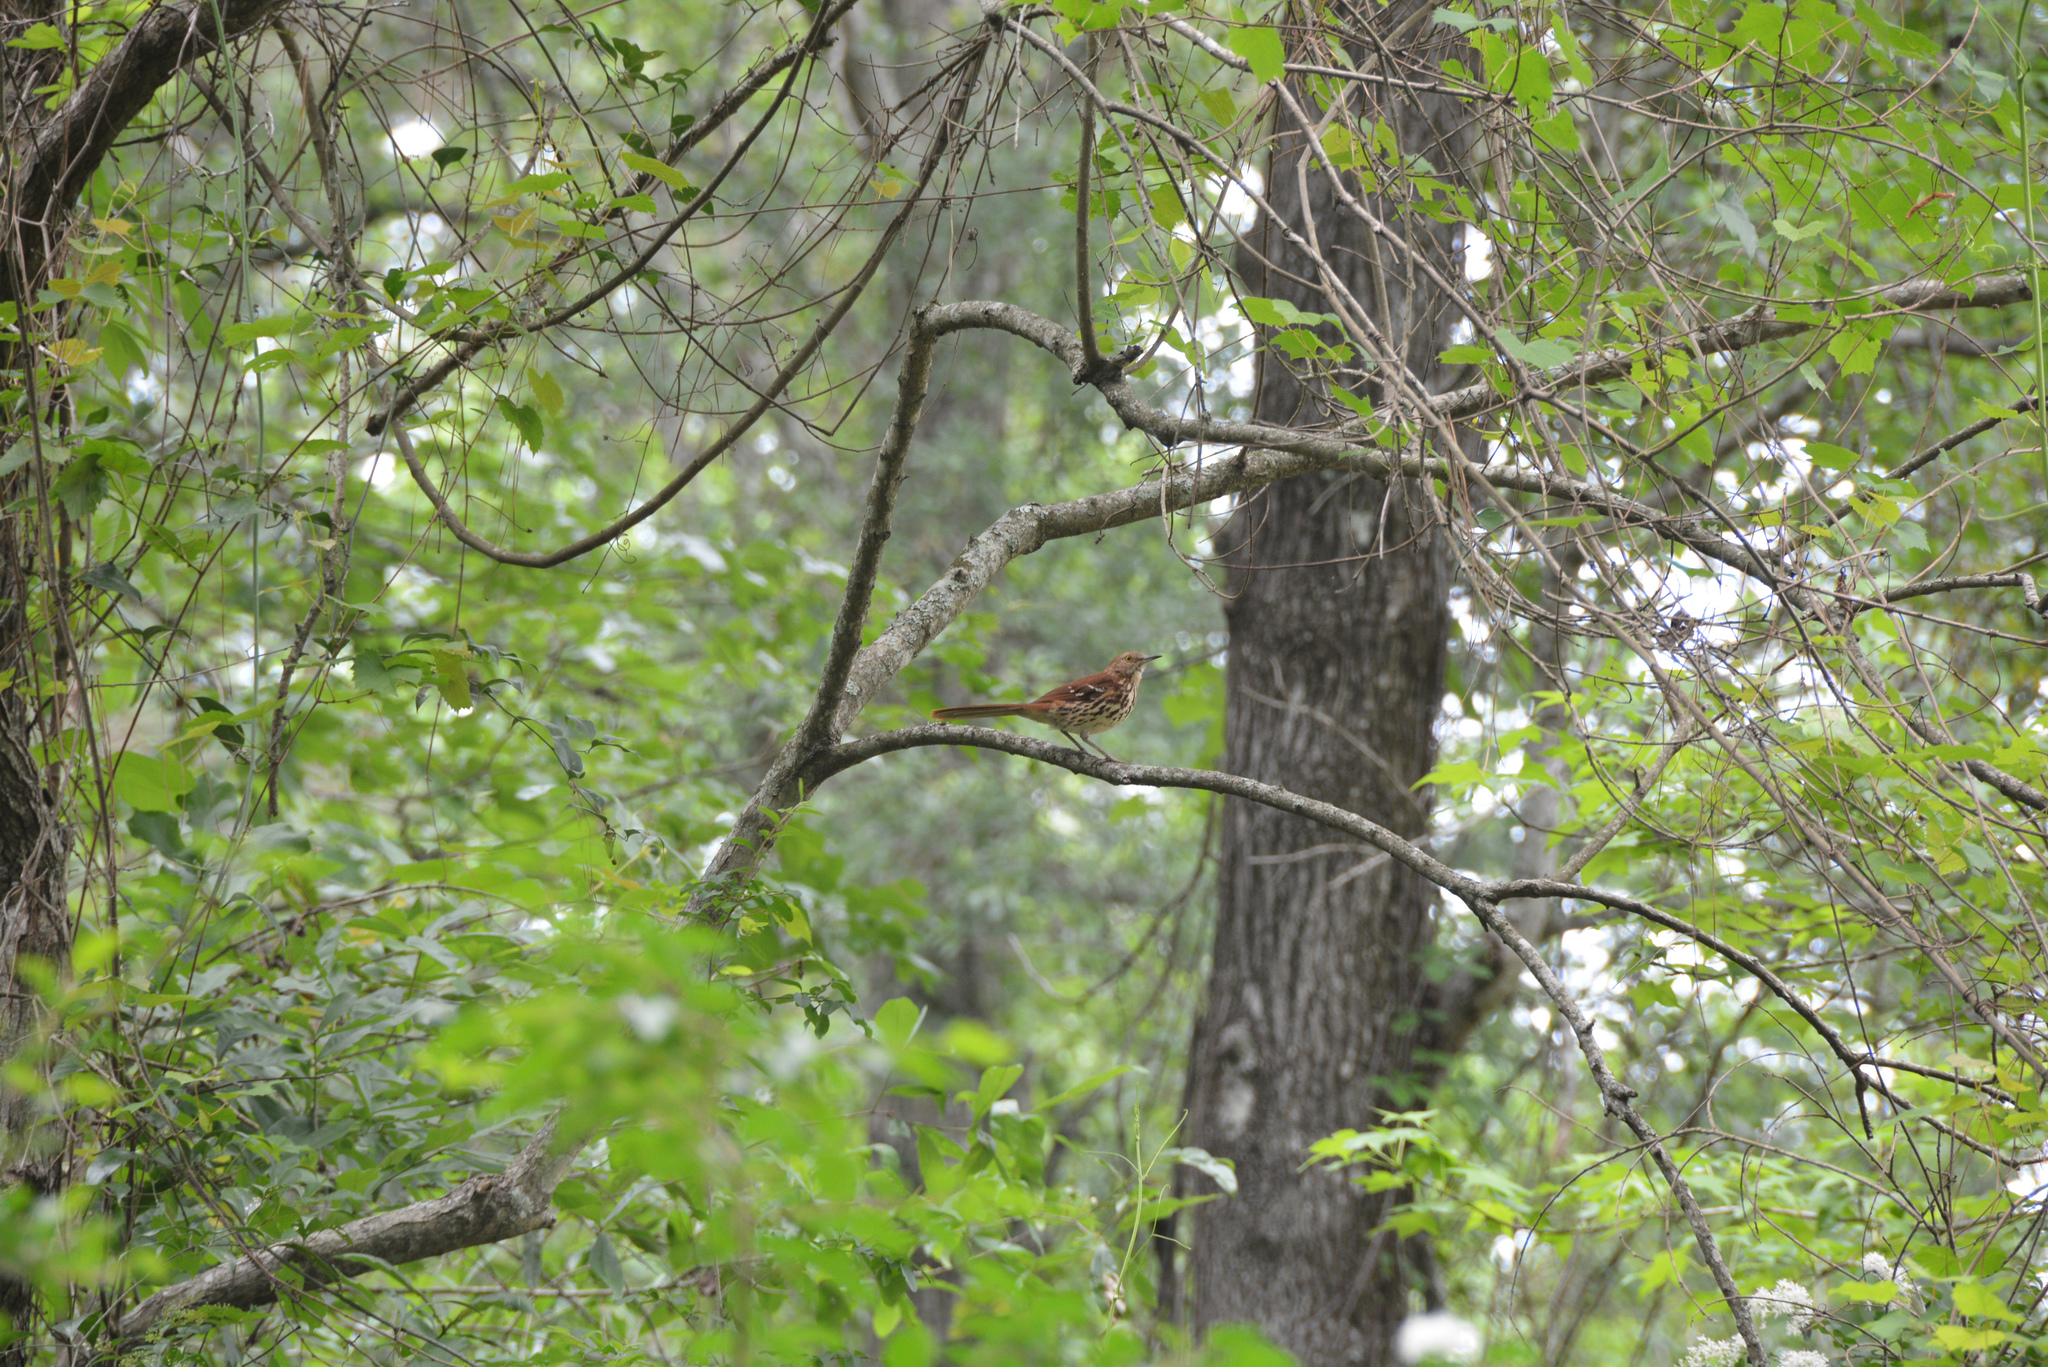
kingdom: Animalia
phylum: Chordata
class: Aves
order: Passeriformes
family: Mimidae
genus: Toxostoma
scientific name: Toxostoma rufum
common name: Brown thrasher
